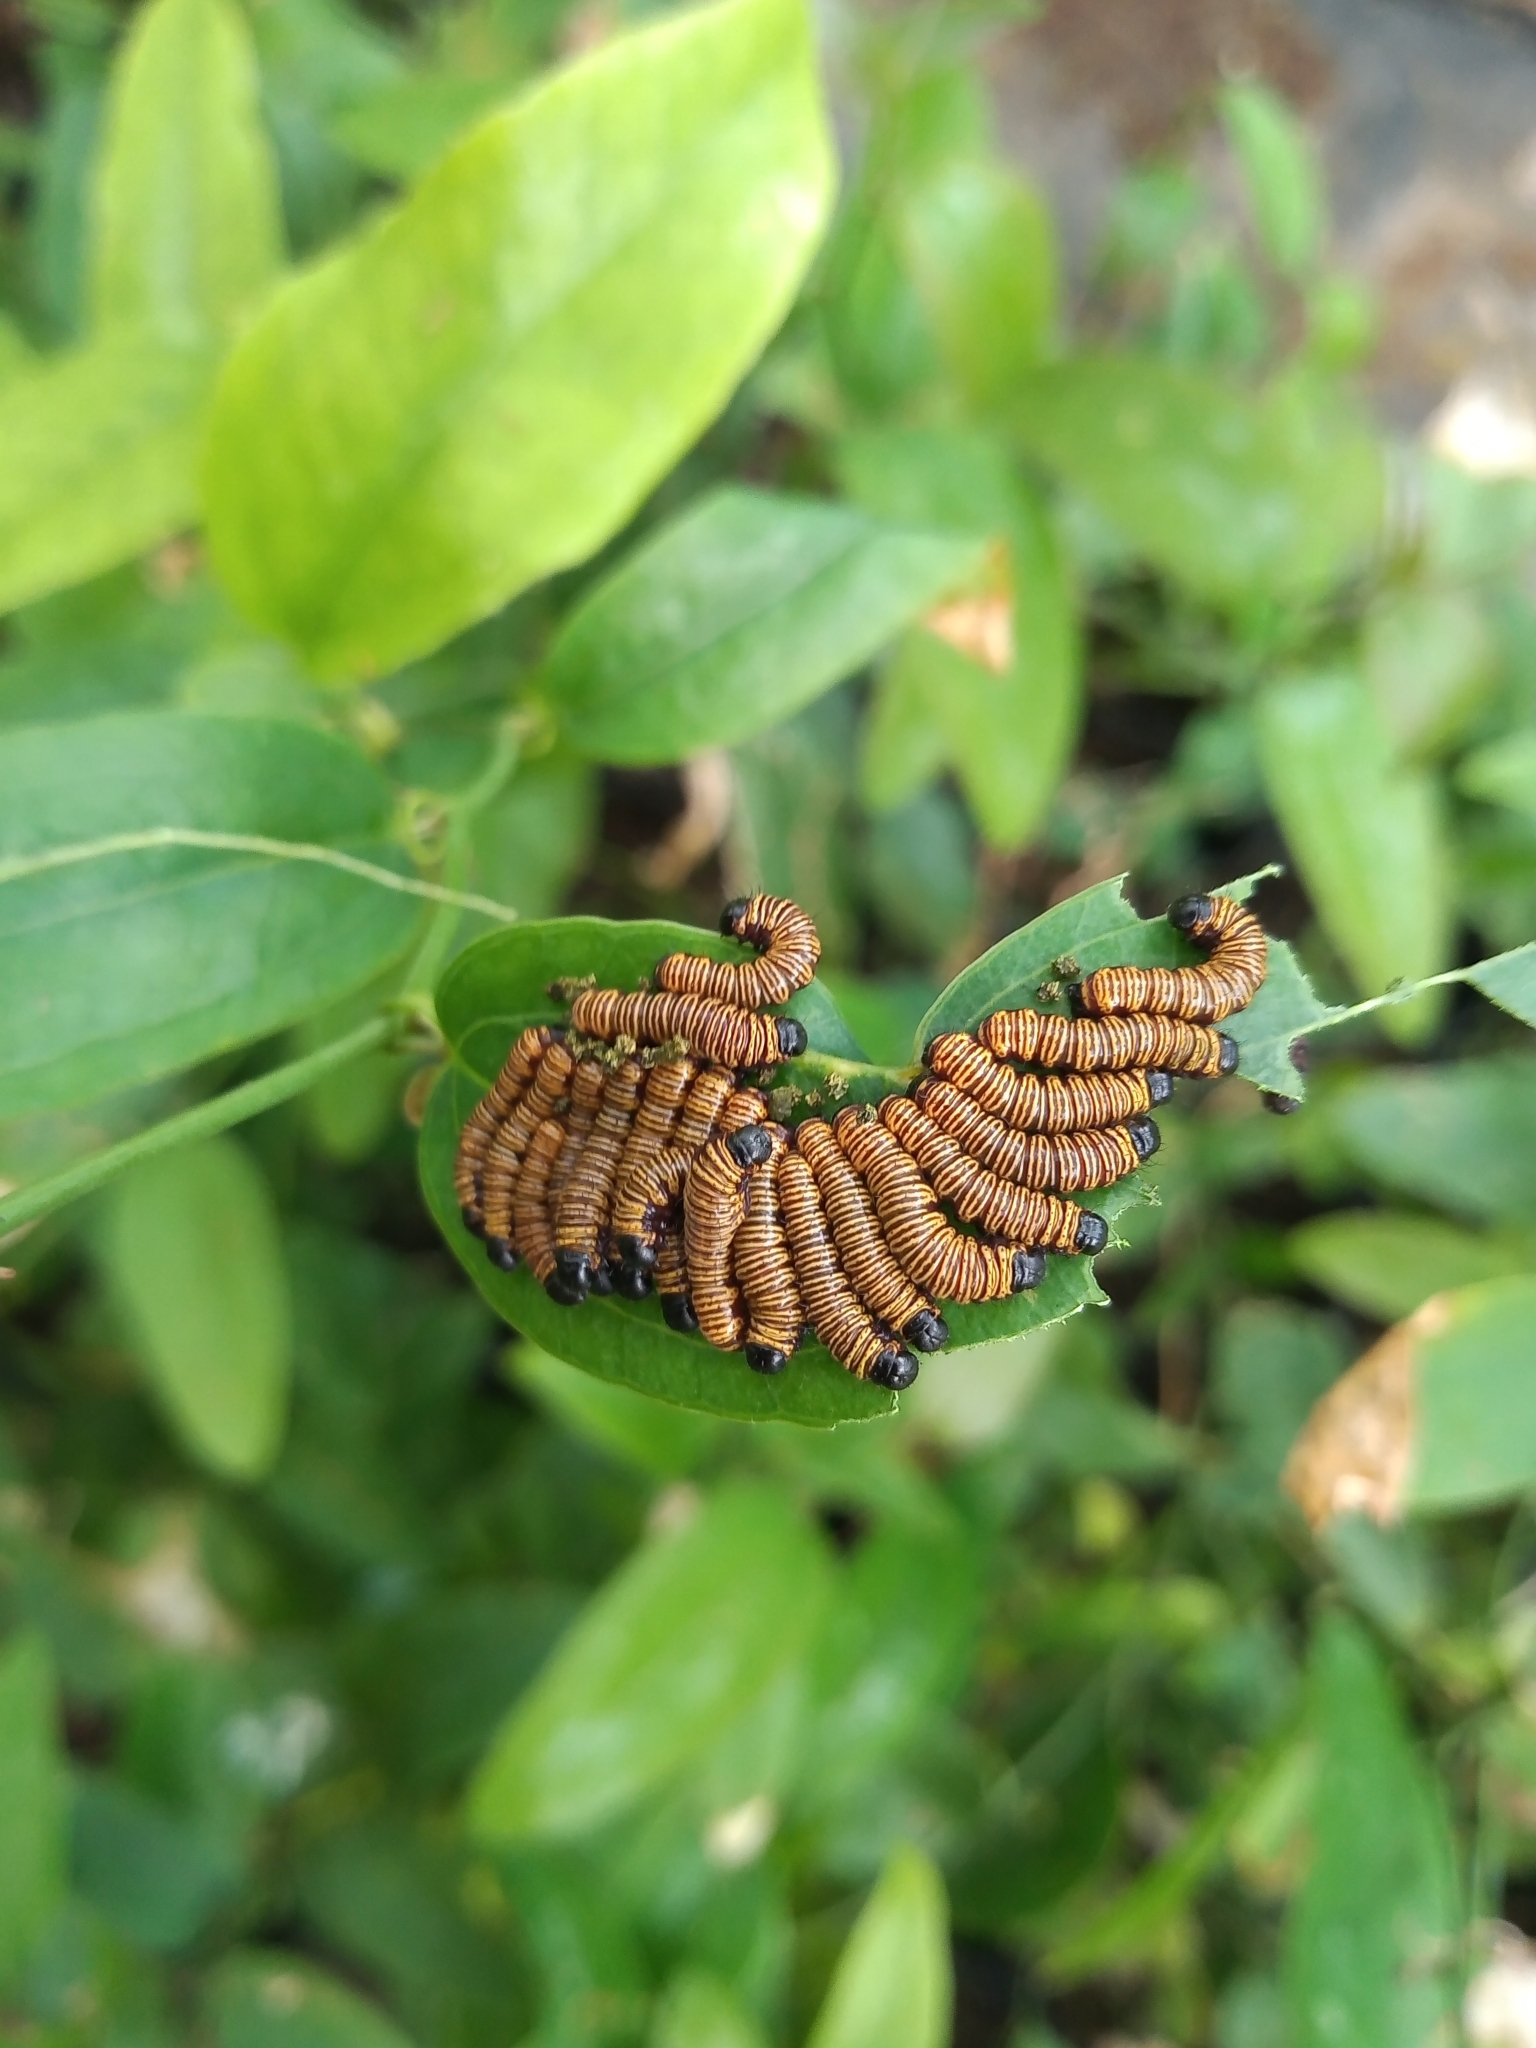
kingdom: Animalia
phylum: Arthropoda
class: Insecta
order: Lepidoptera
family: Erebidae
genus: Cabralia
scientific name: Cabralia Cromobergia teichii
